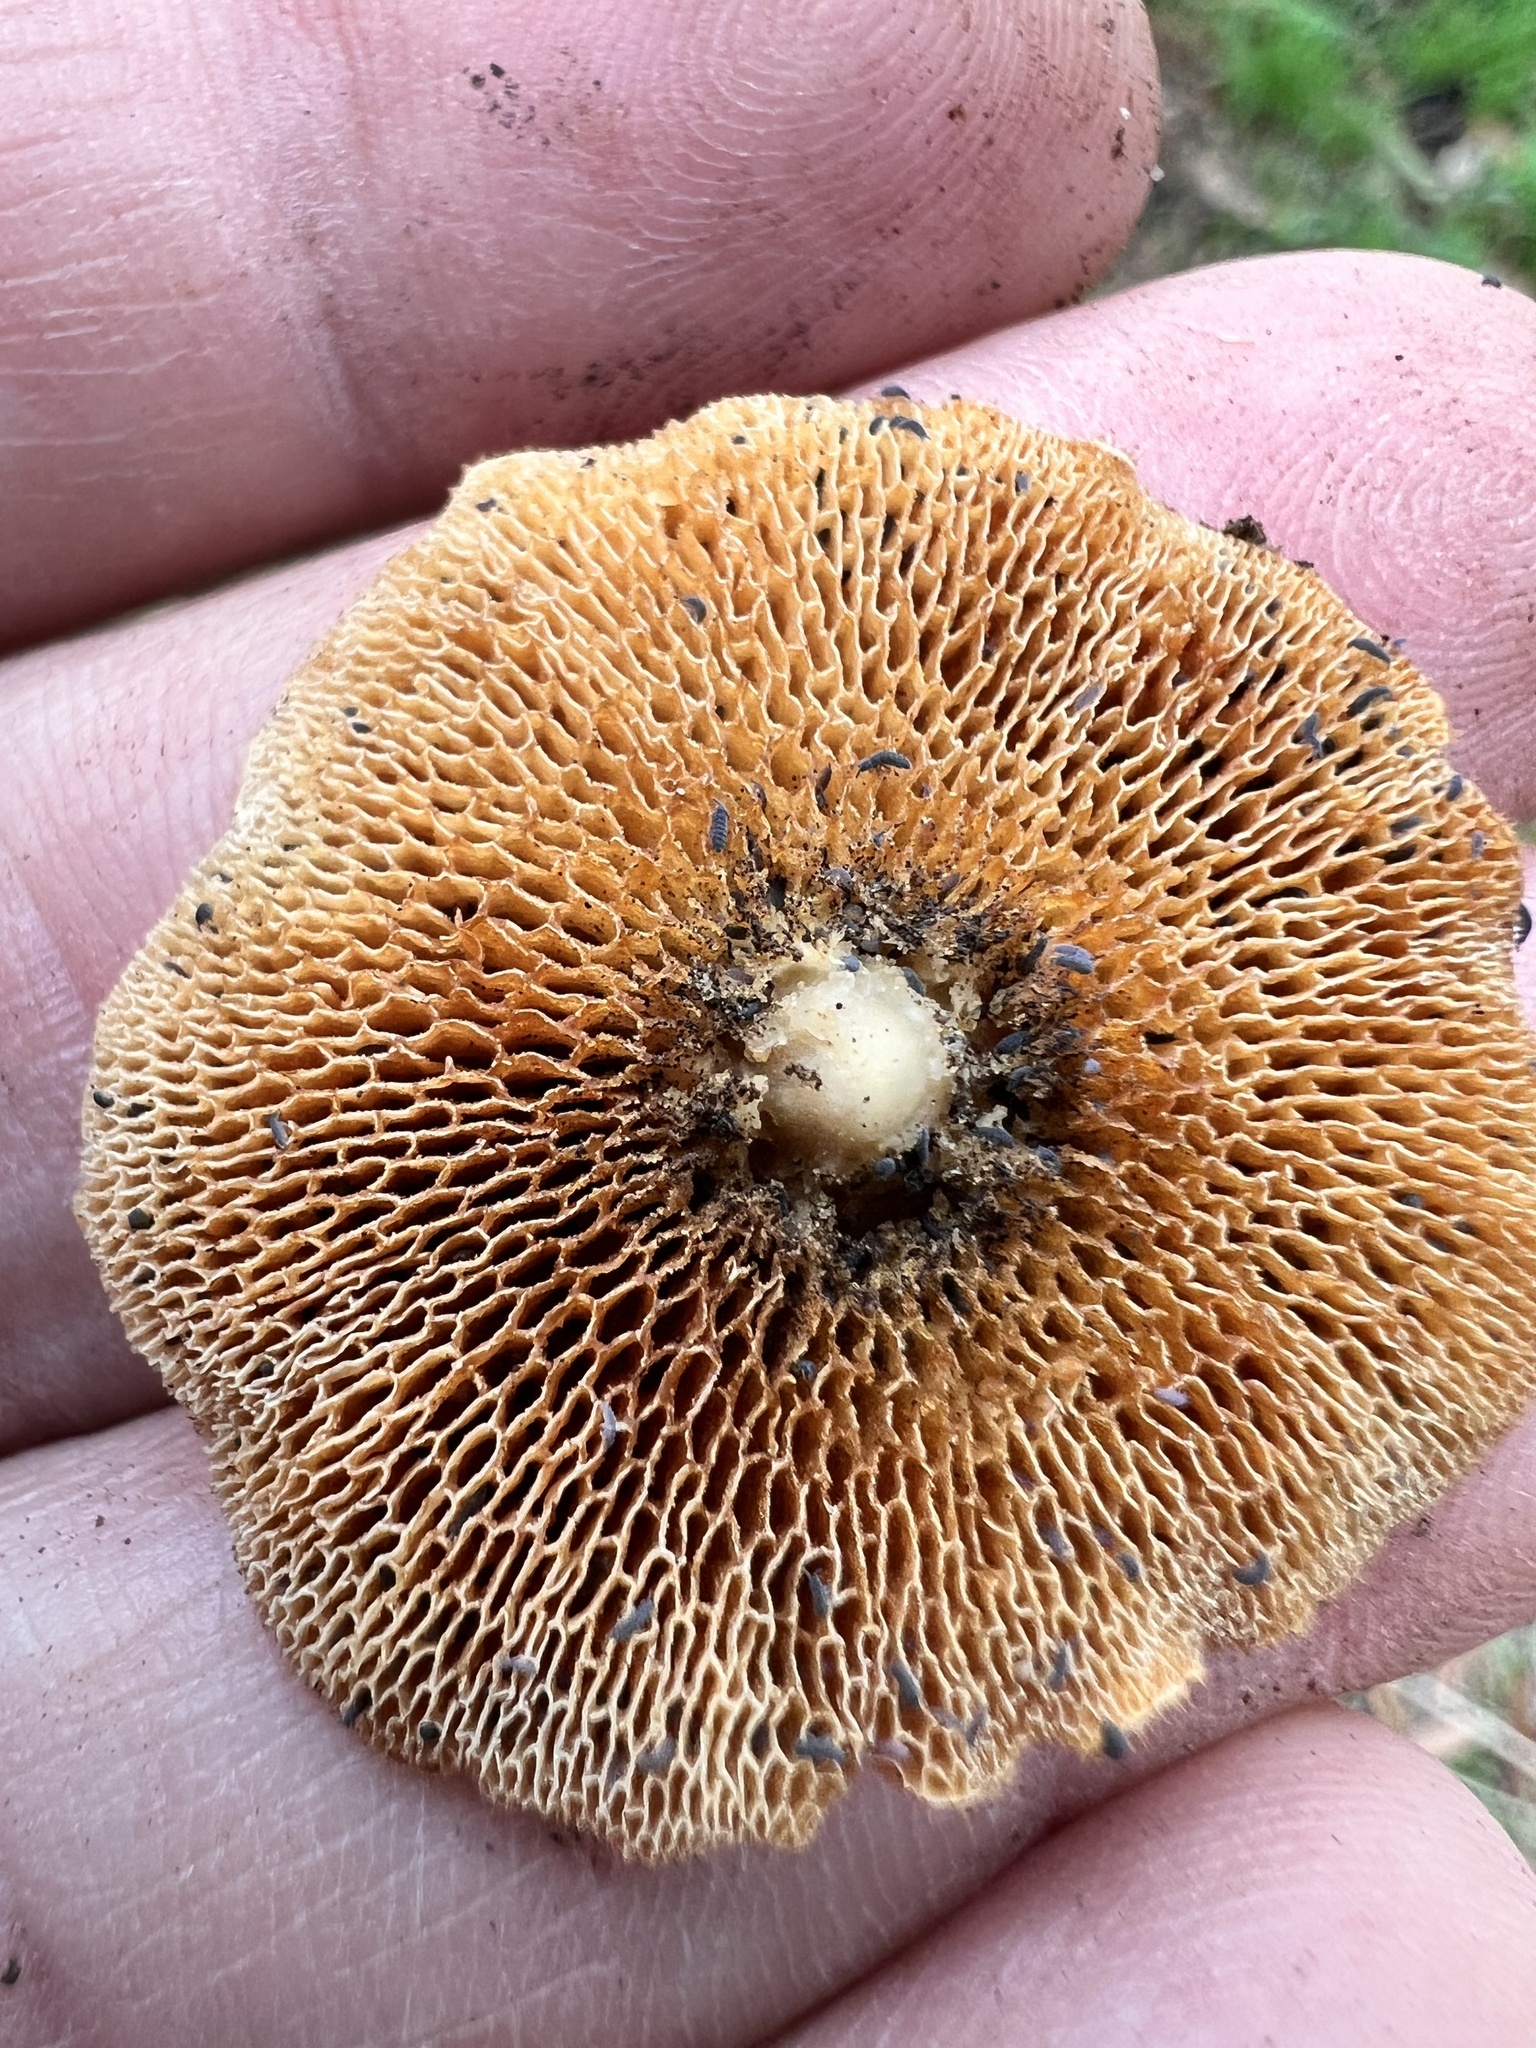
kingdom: Fungi
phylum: Basidiomycota
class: Agaricomycetes
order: Polyporales
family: Polyporaceae
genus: Lentinus
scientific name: Lentinus arcularius
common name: Spring polypore
